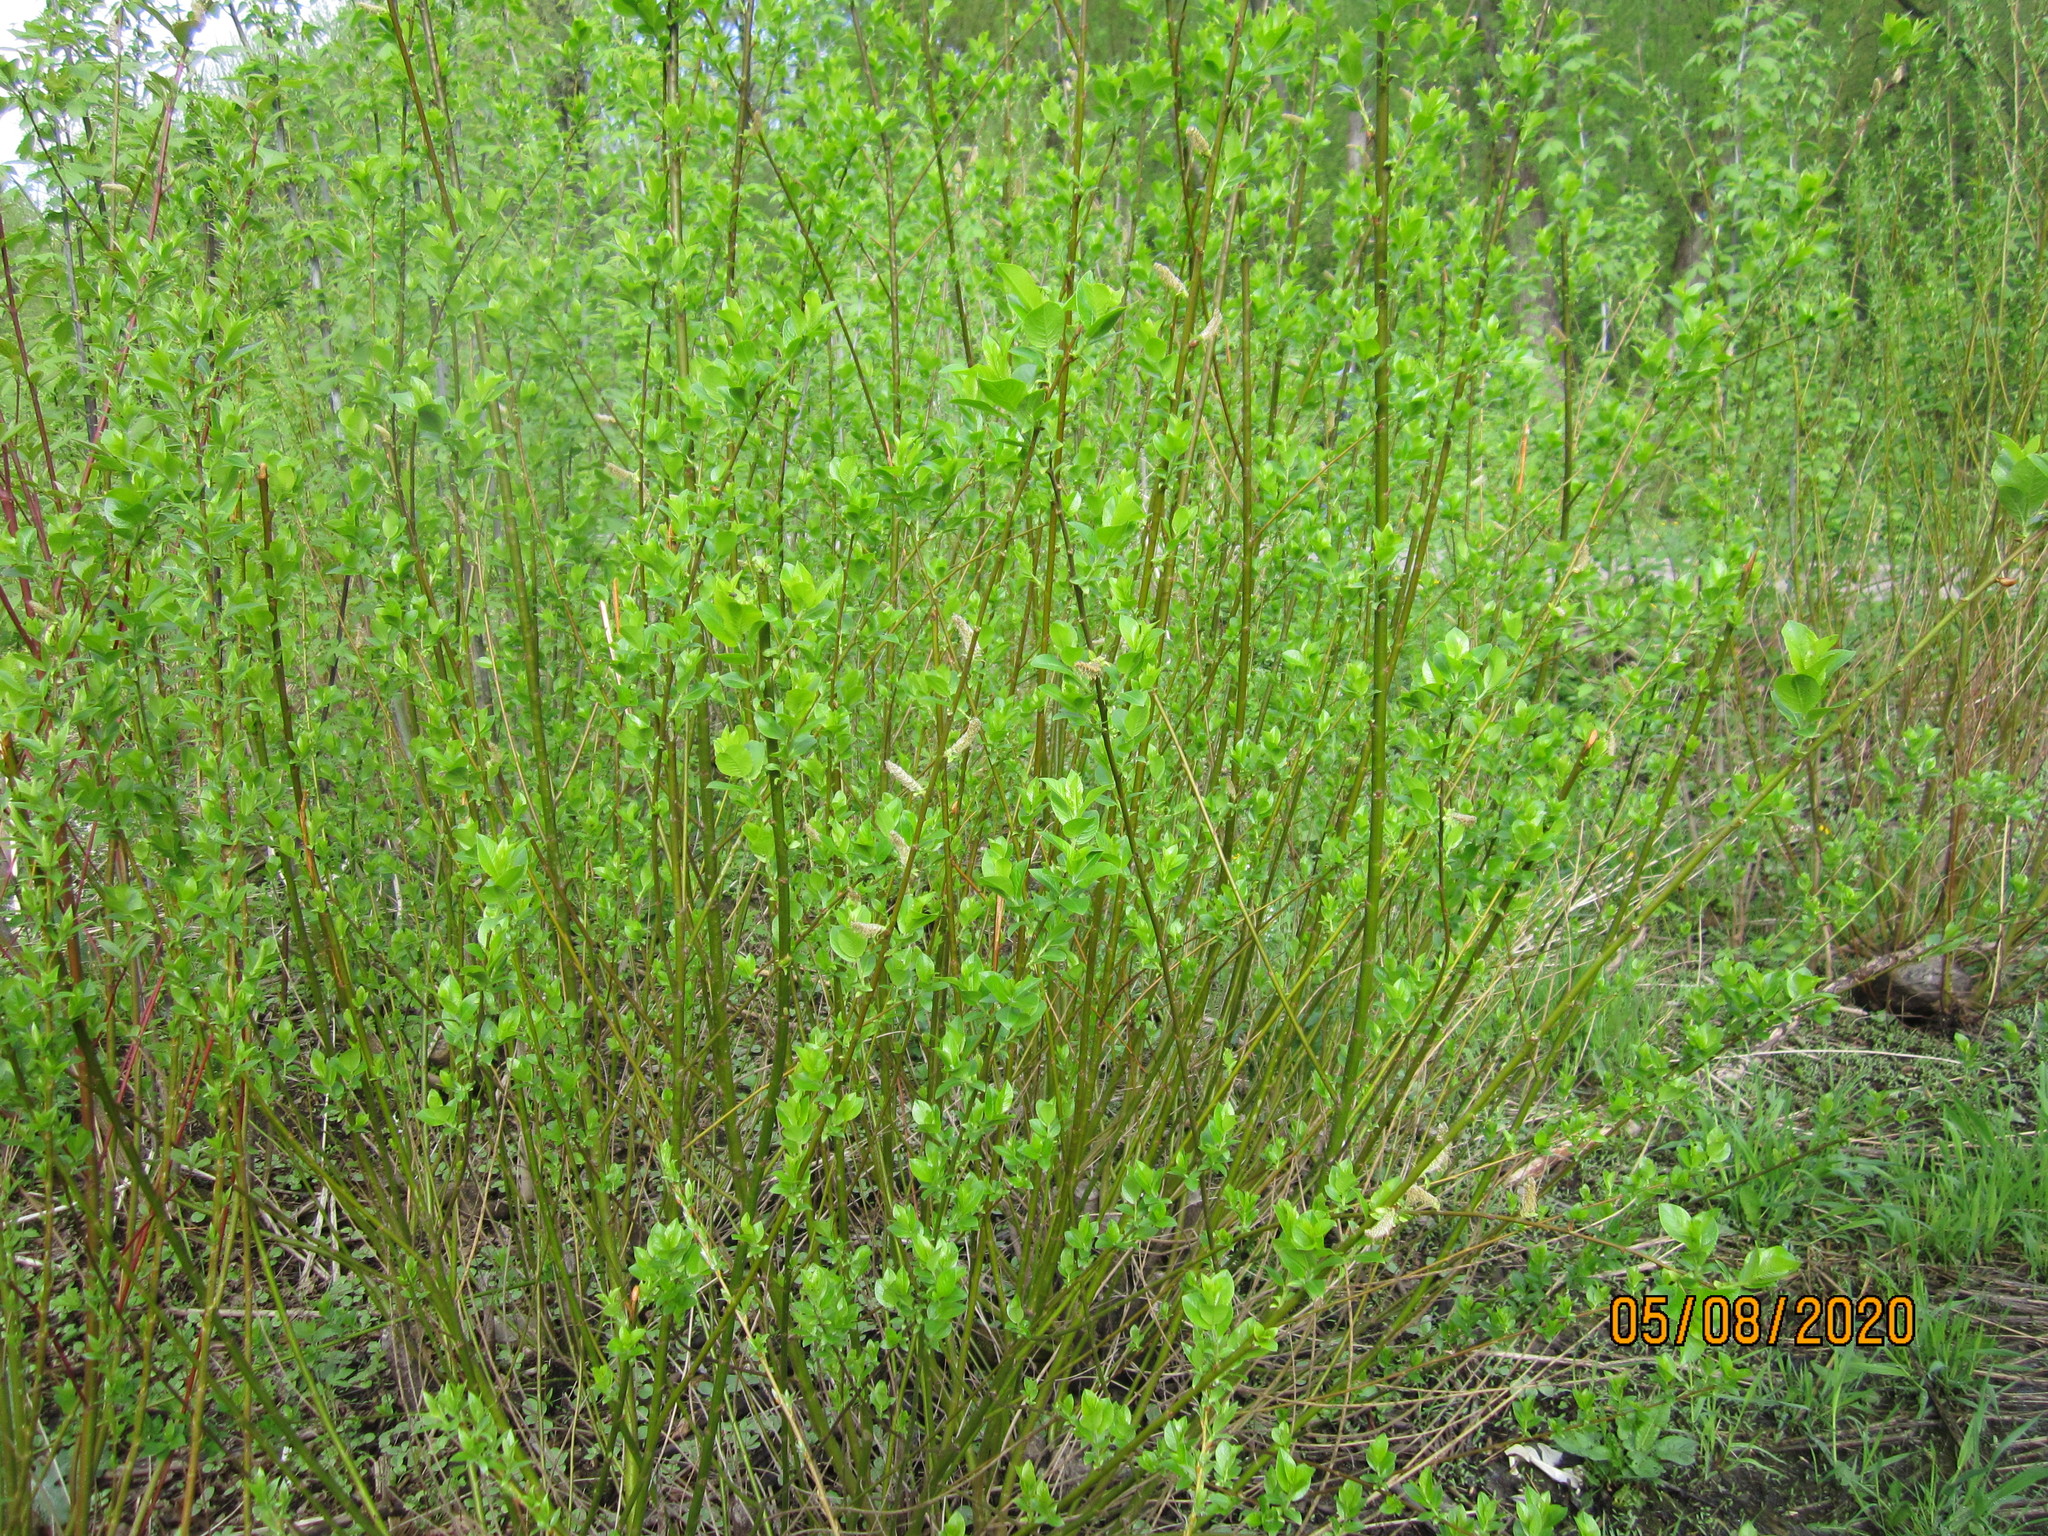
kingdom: Plantae
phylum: Tracheophyta
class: Magnoliopsida
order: Malpighiales
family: Salicaceae
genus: Salix
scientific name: Salix myrsinifolia
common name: Dark-leaved willow
